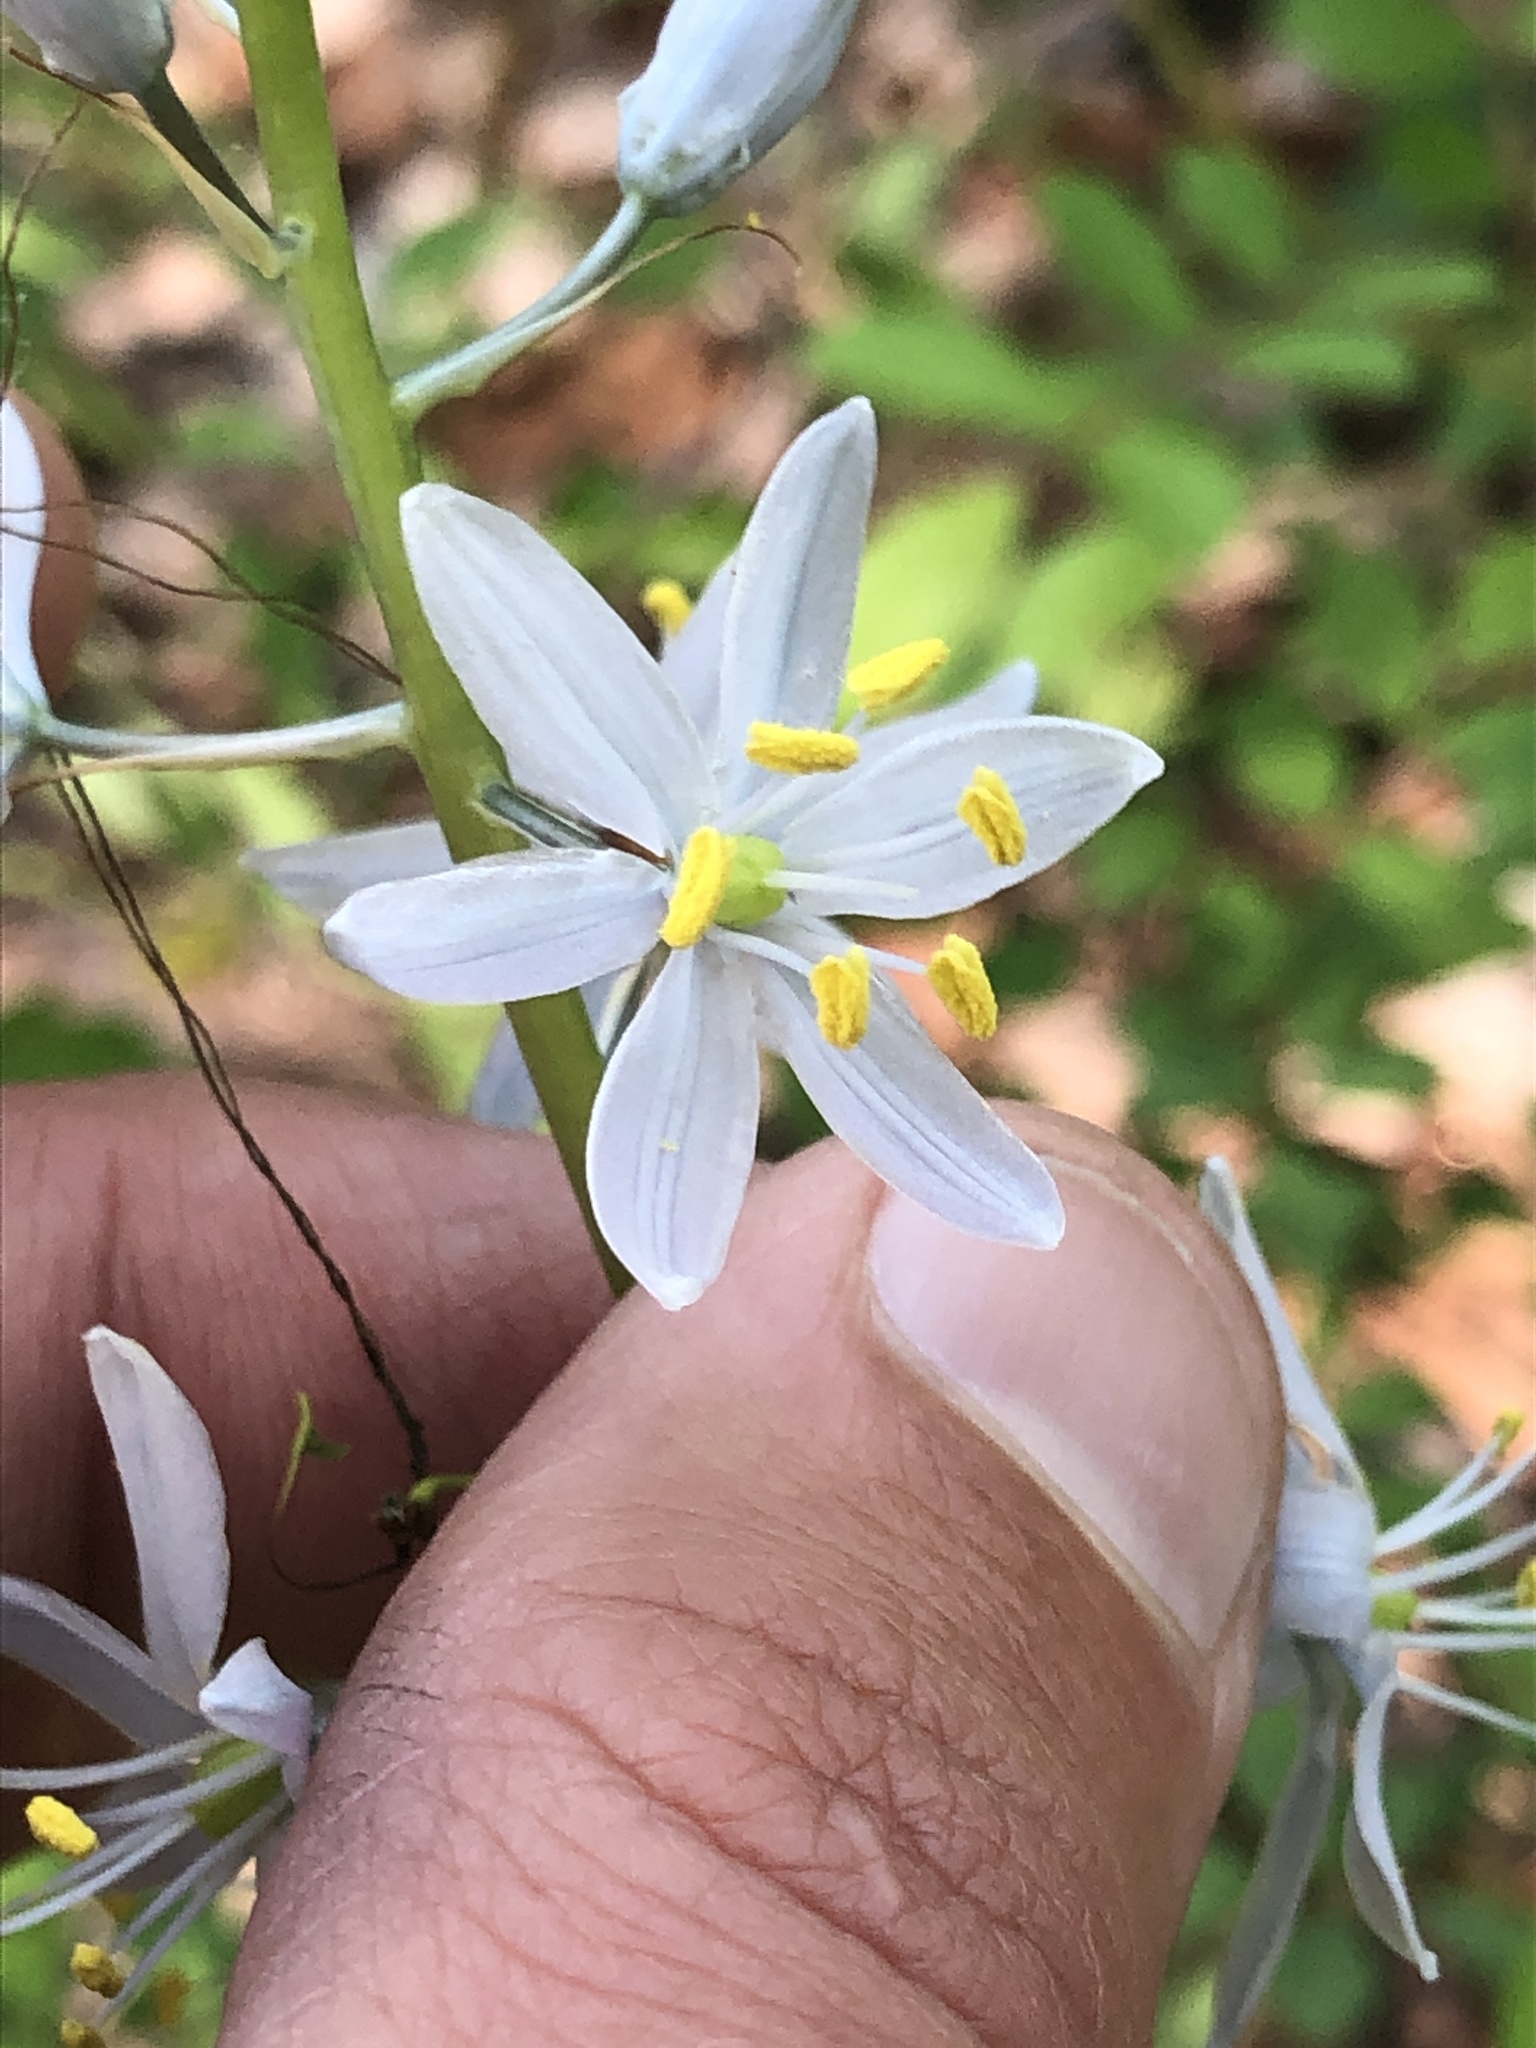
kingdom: Plantae
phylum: Tracheophyta
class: Liliopsida
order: Asparagales
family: Asparagaceae
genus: Camassia
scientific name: Camassia scilloides
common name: Wild hyacinth
